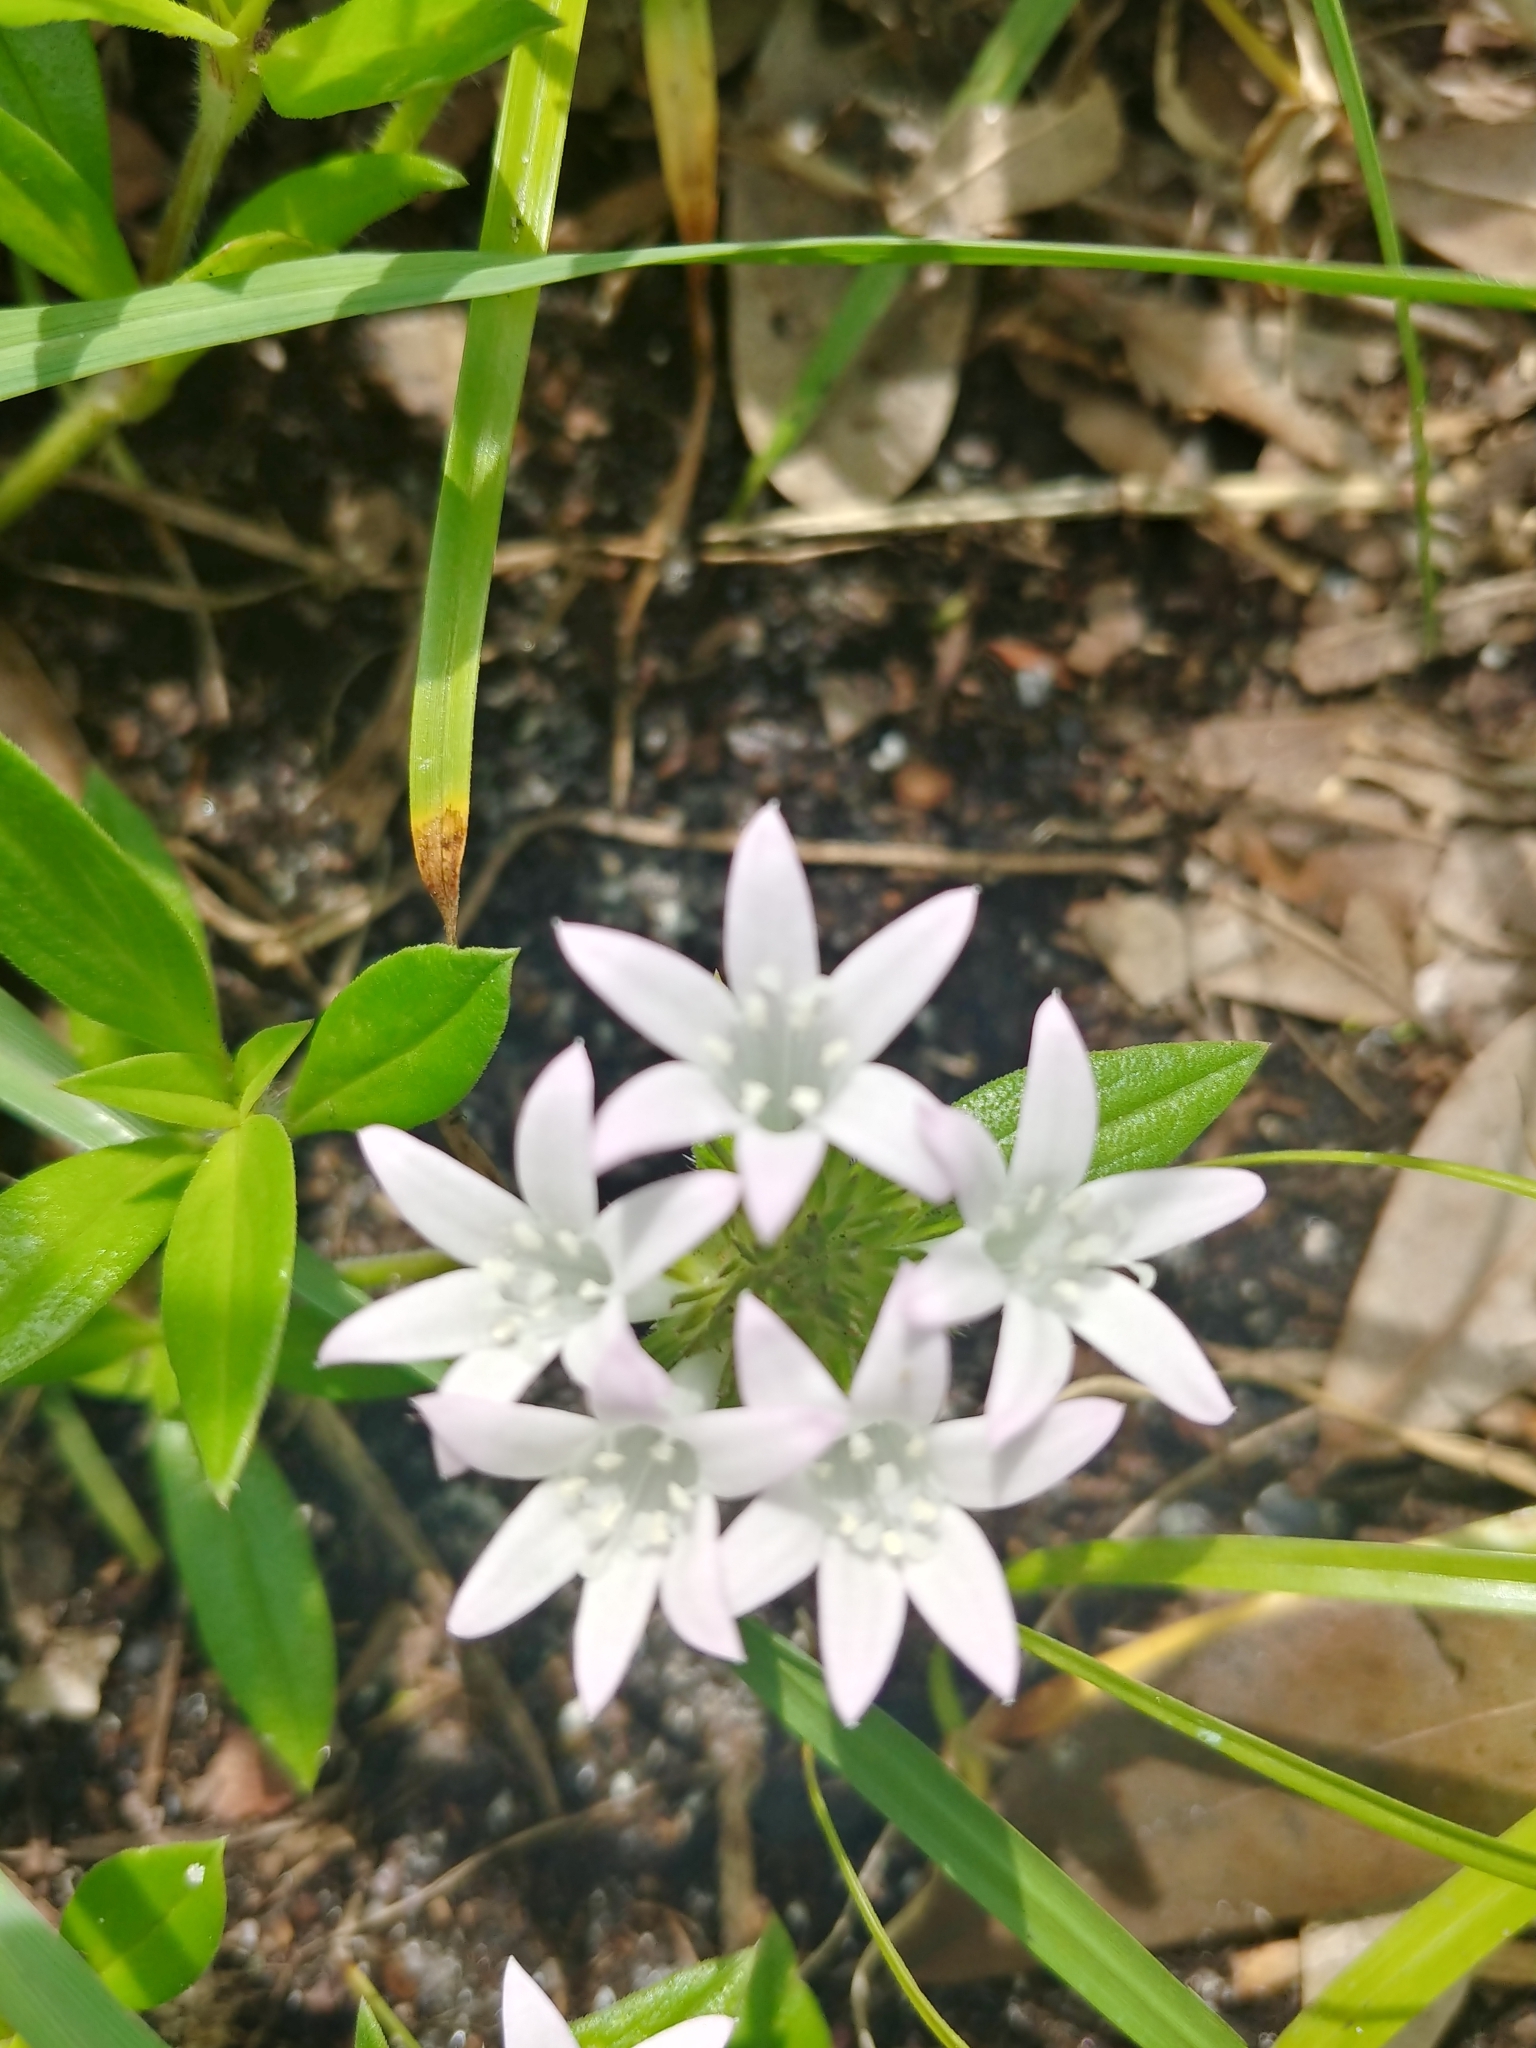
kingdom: Plantae
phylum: Tracheophyta
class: Magnoliopsida
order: Gentianales
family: Rubiaceae
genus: Richardia
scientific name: Richardia grandiflora
